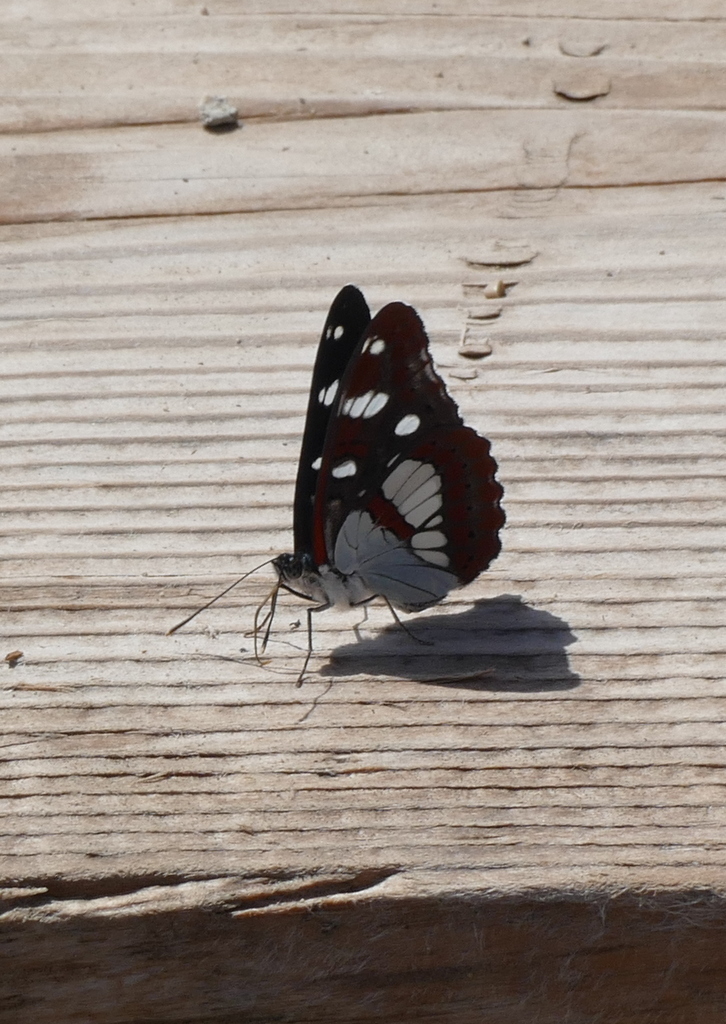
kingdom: Animalia
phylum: Arthropoda
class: Insecta
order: Lepidoptera
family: Nymphalidae
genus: Limenitis
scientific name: Limenitis reducta
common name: Southern white admiral
